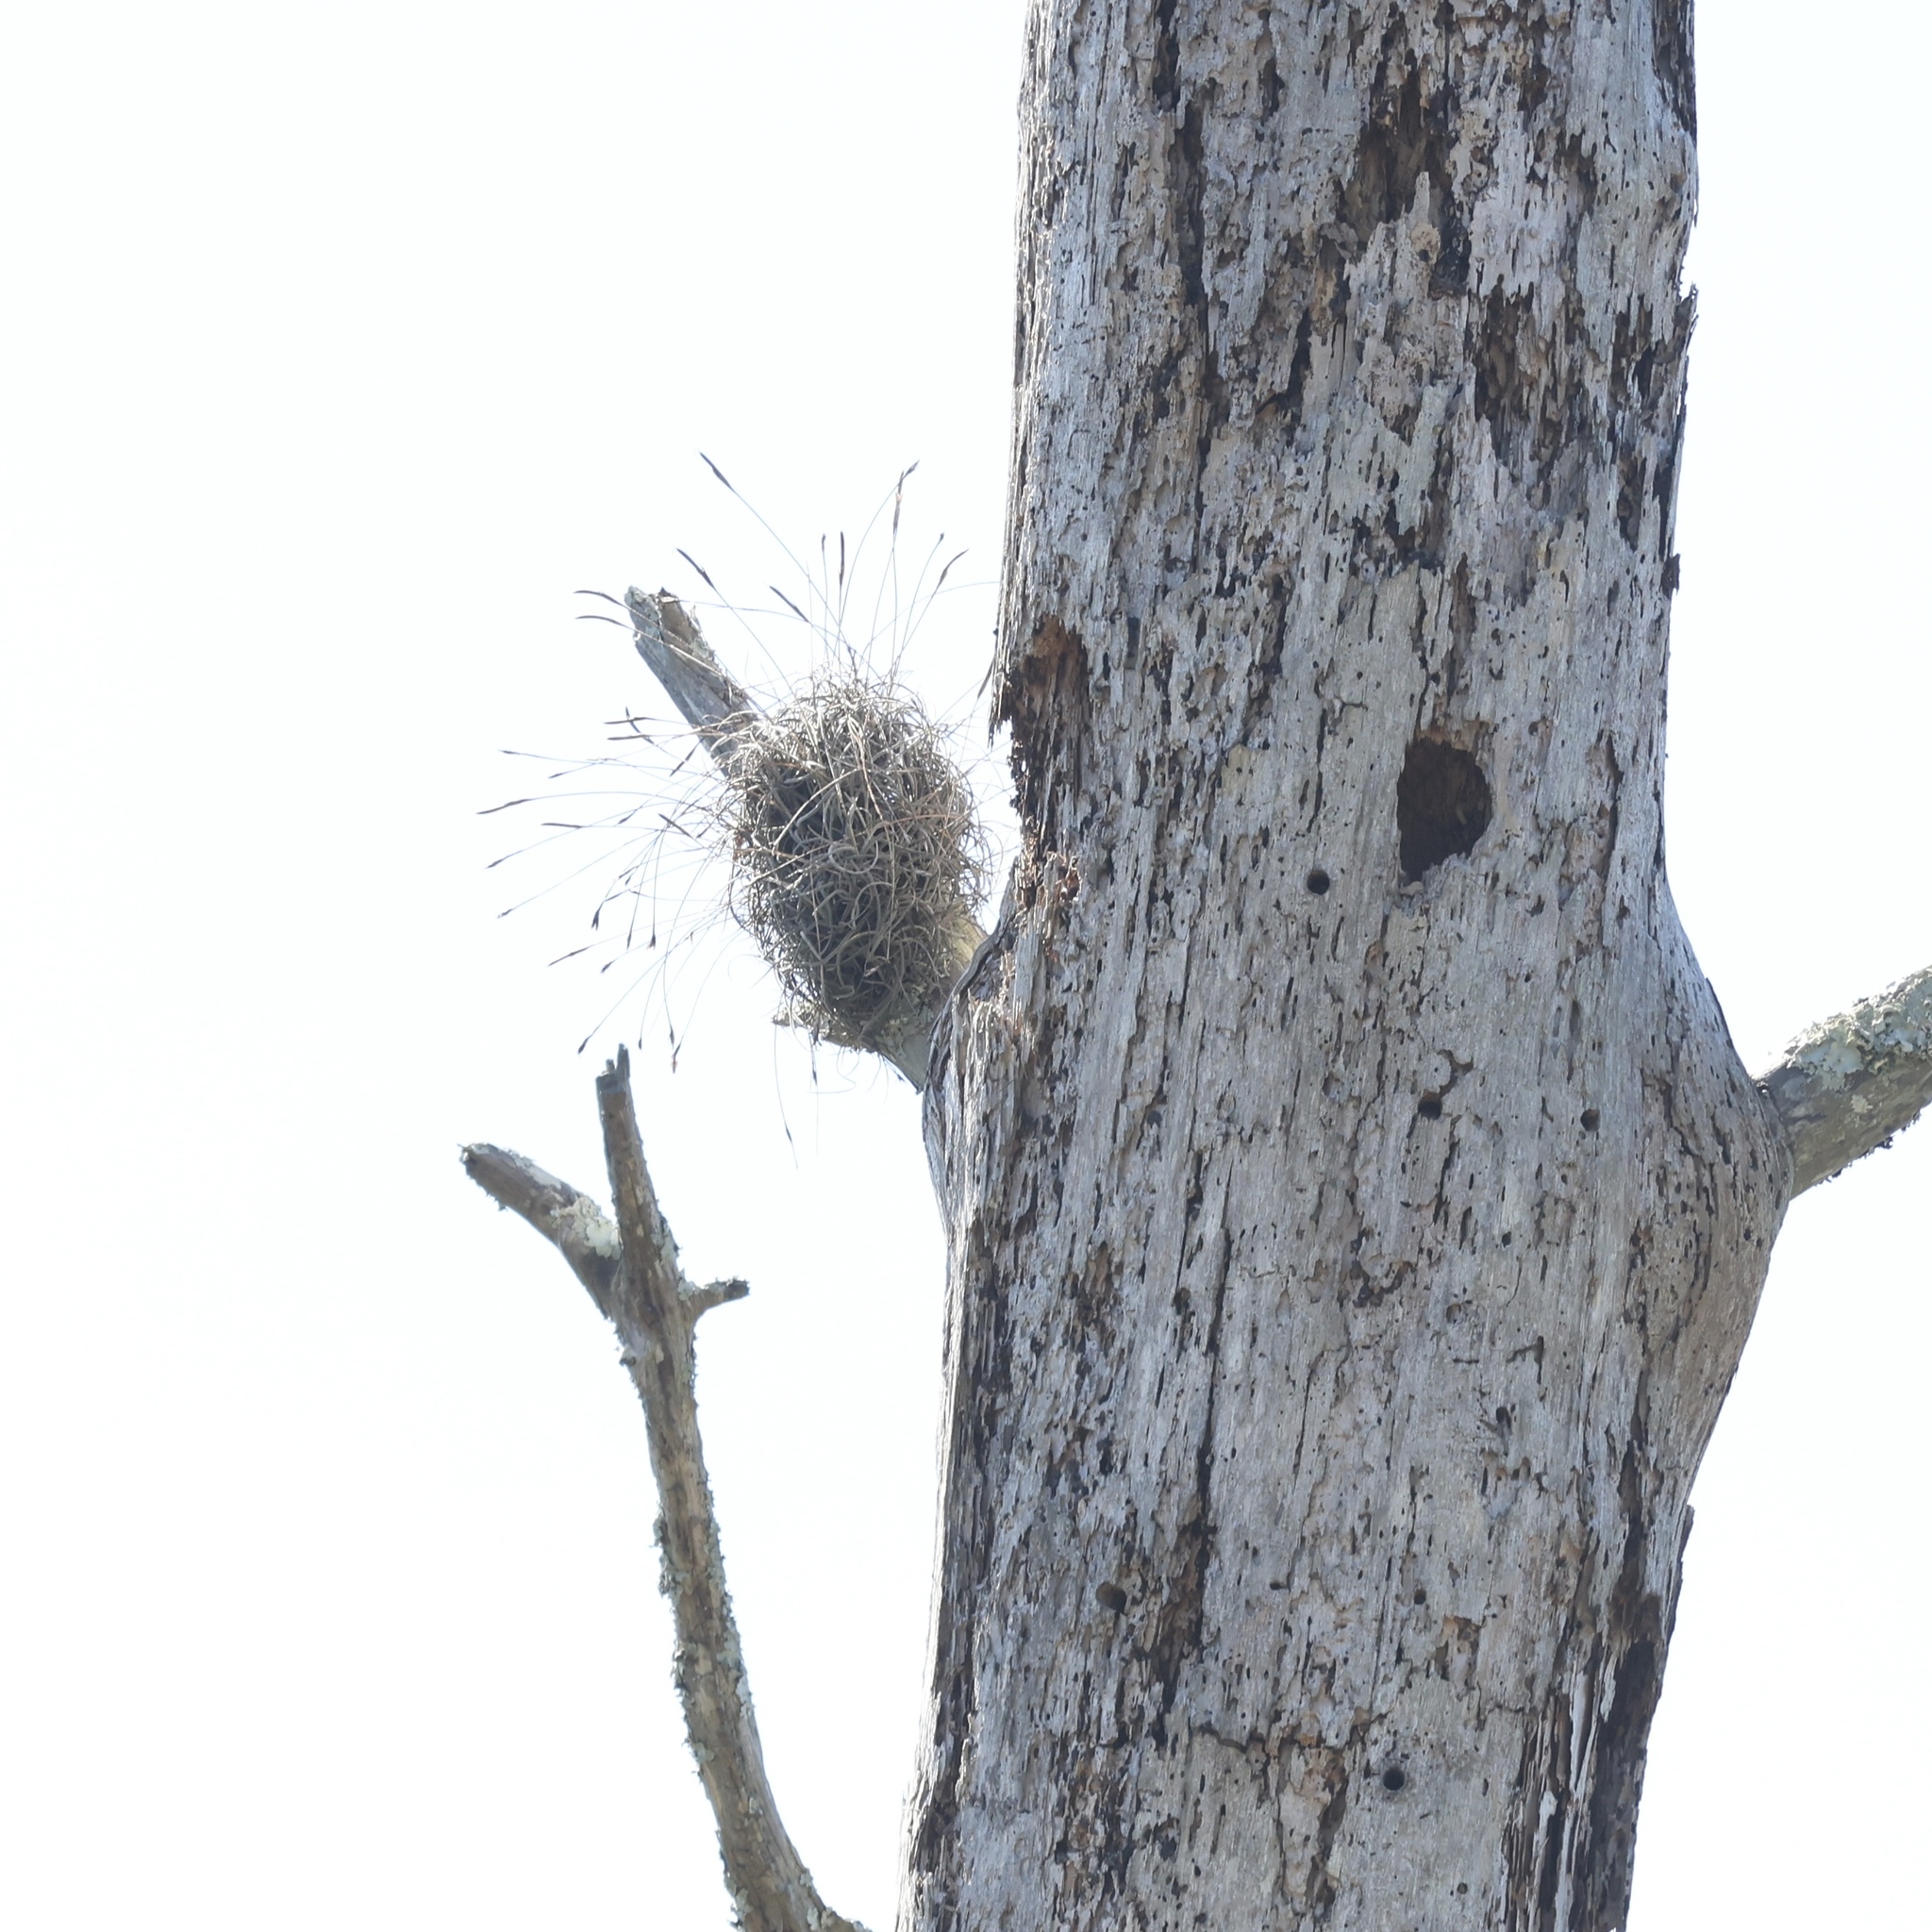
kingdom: Plantae
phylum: Tracheophyta
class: Liliopsida
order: Poales
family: Bromeliaceae
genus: Tillandsia
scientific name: Tillandsia recurvata
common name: Small ballmoss
